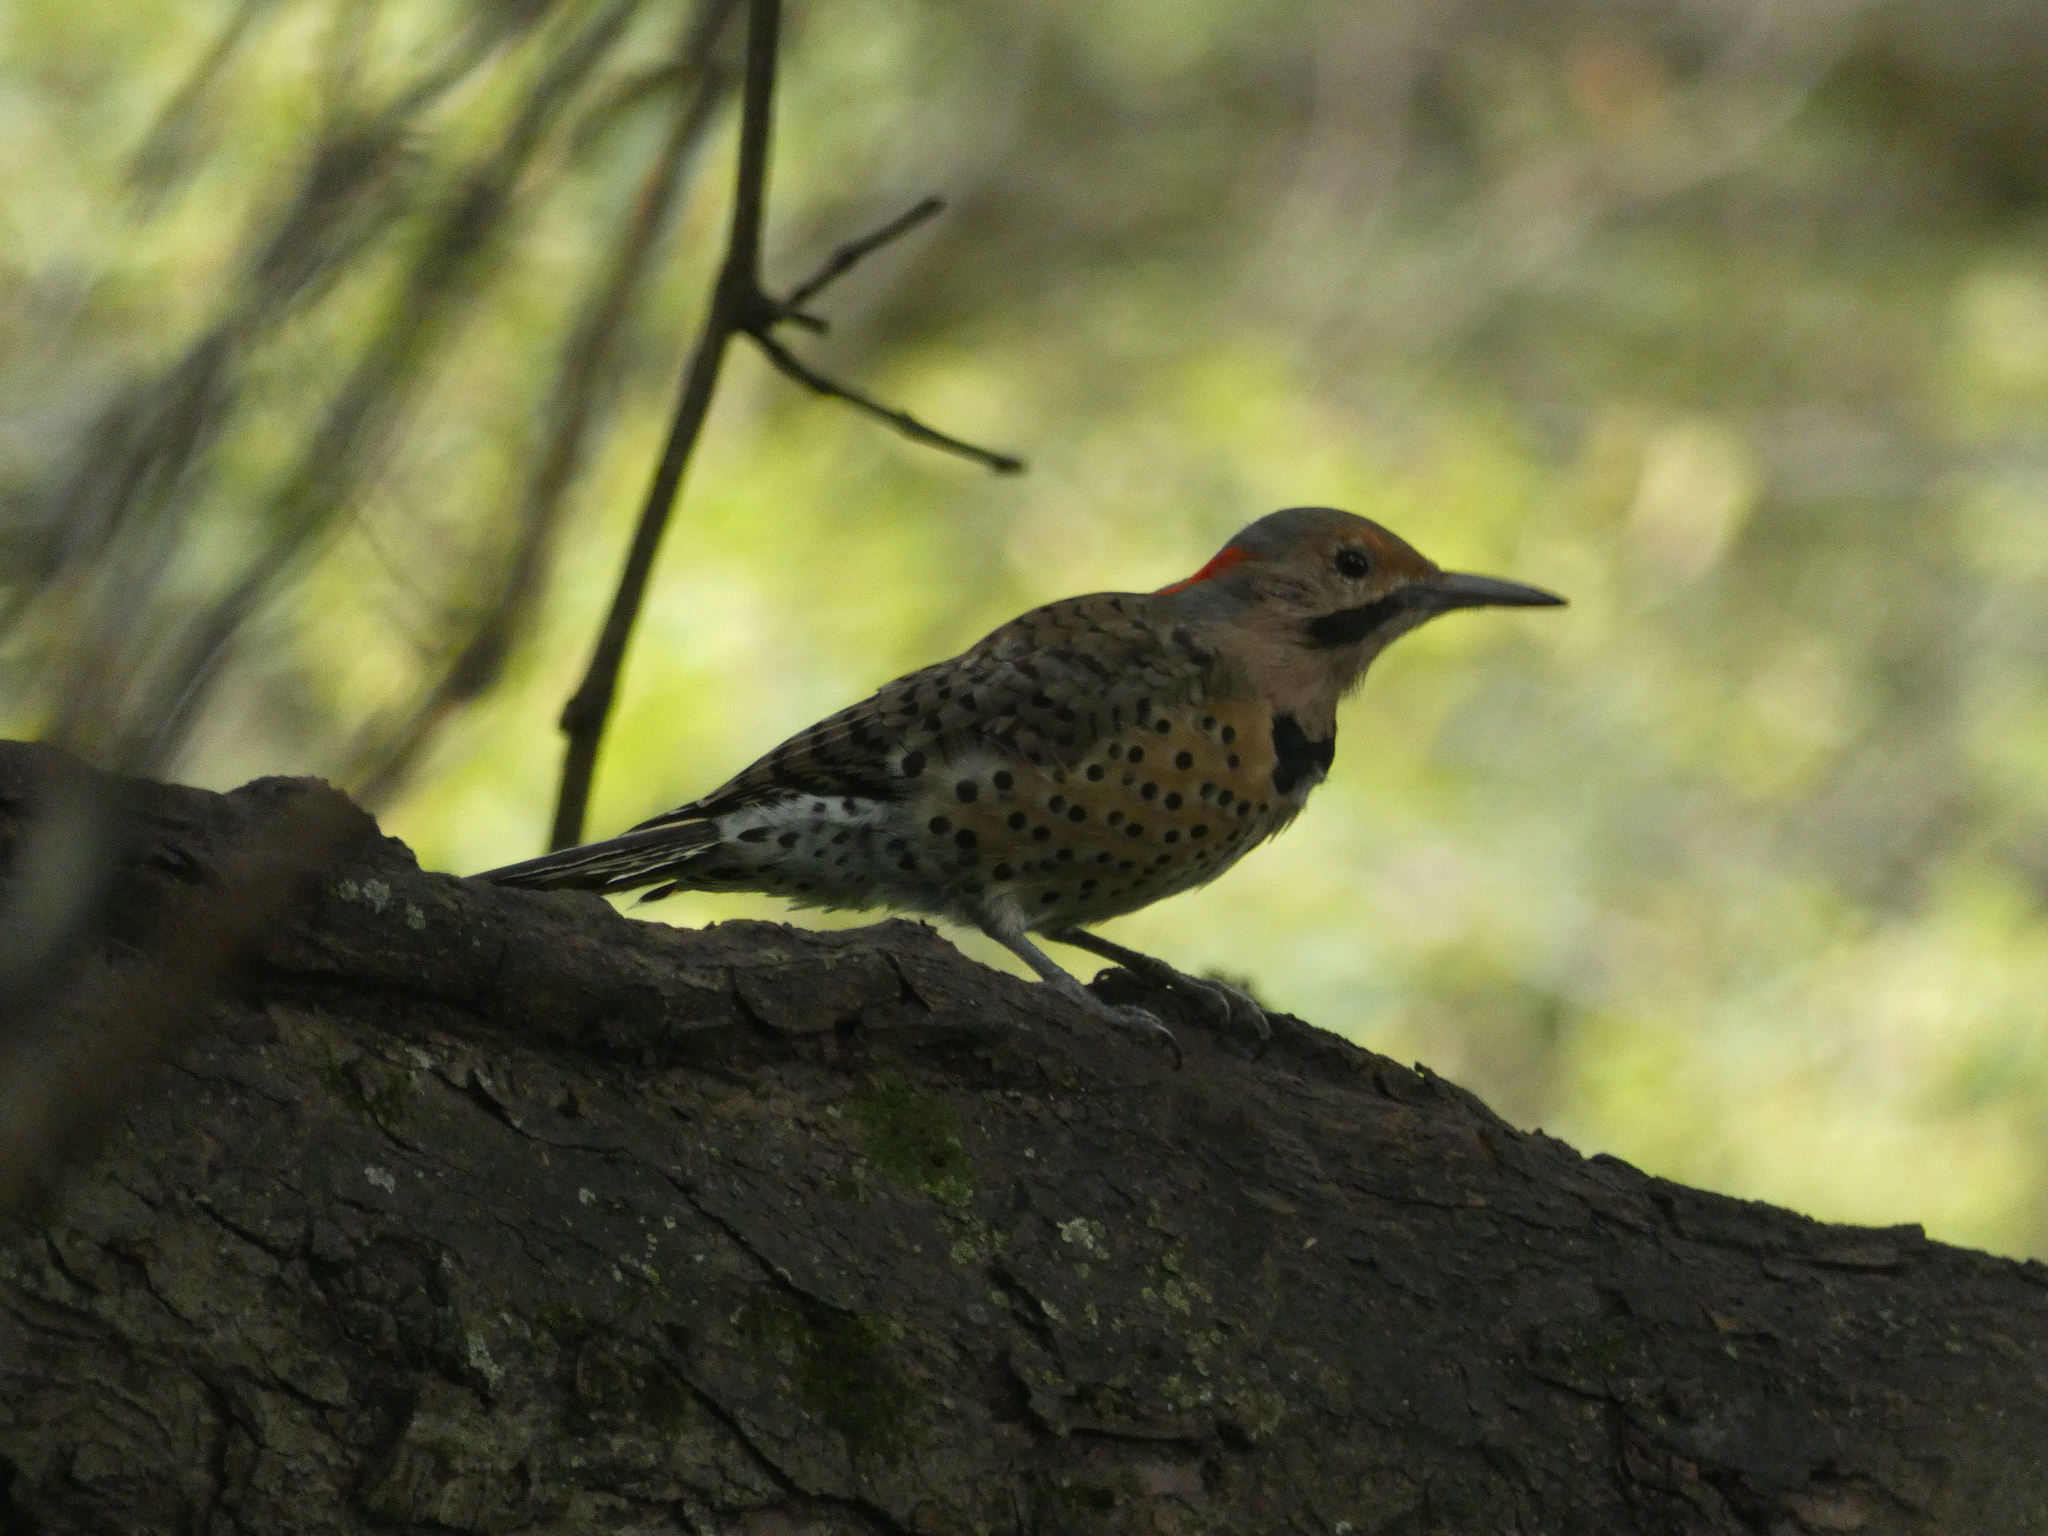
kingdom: Animalia
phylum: Chordata
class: Aves
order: Piciformes
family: Picidae
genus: Colaptes
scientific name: Colaptes auratus
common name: Northern flicker
